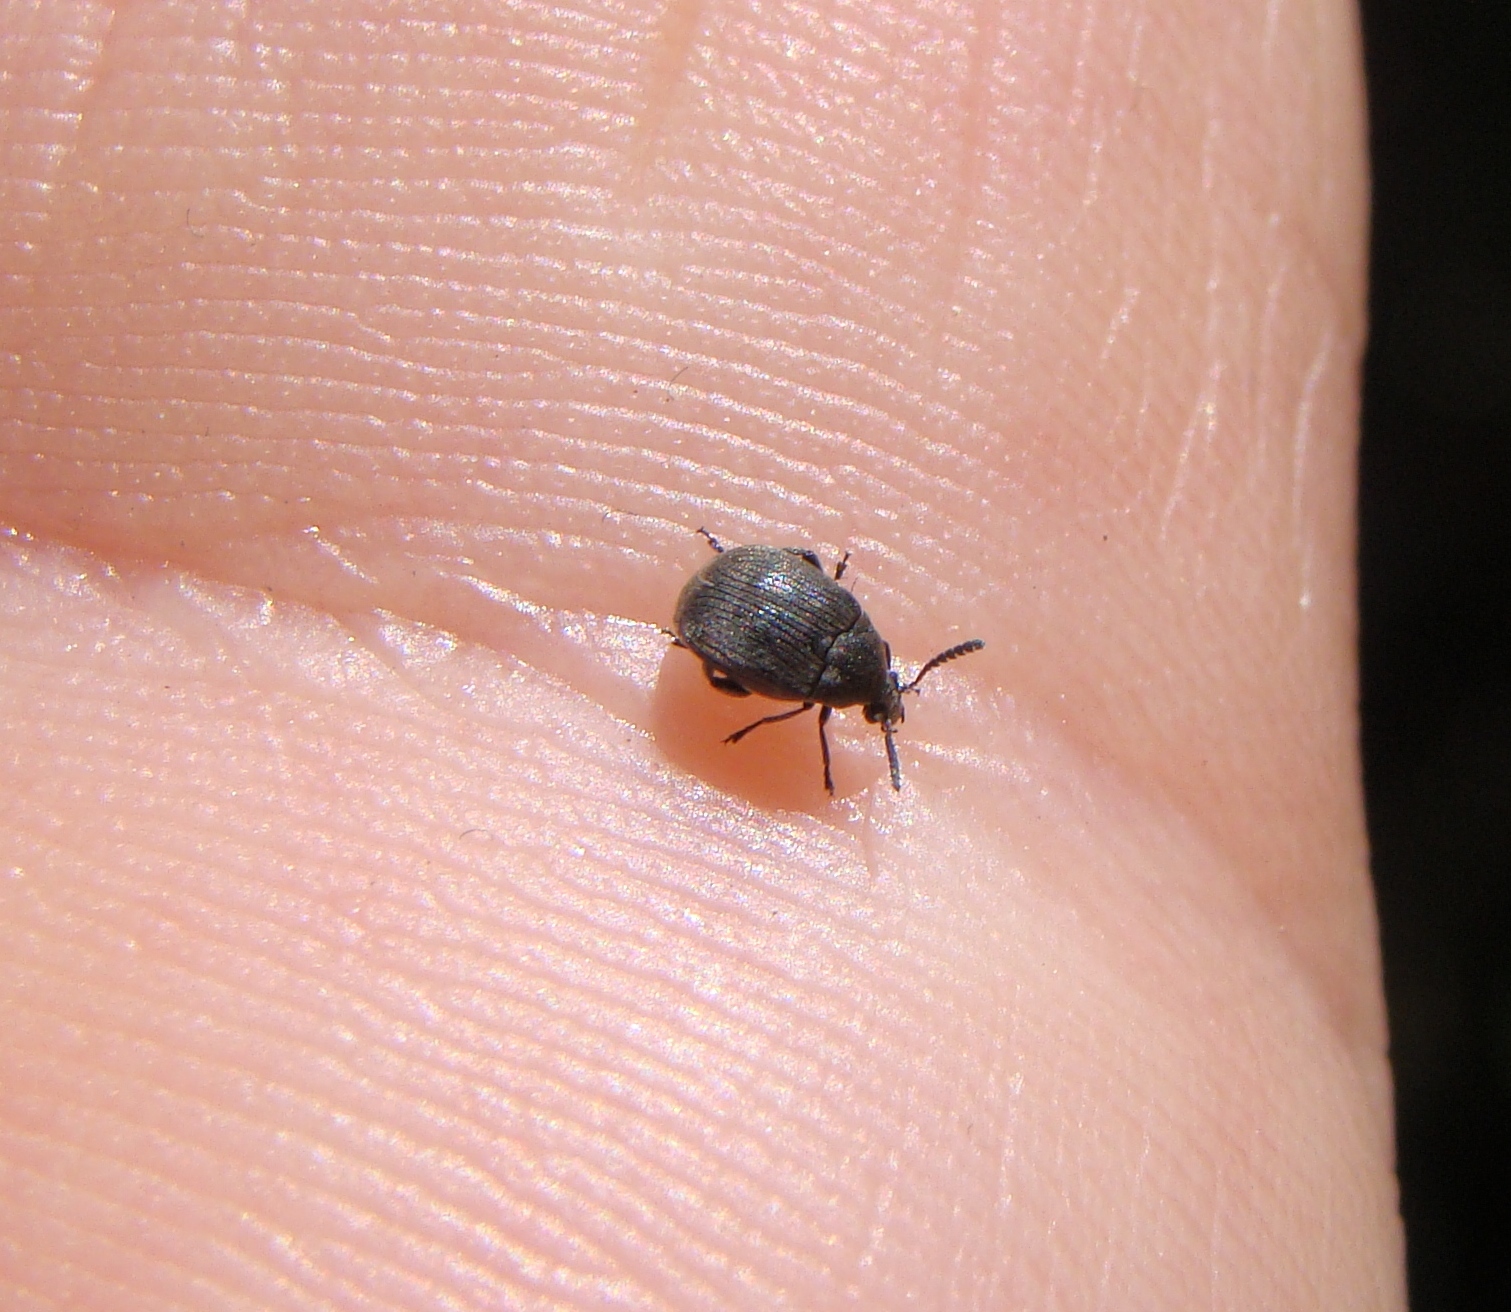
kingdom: Animalia
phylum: Arthropoda
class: Insecta
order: Coleoptera
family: Chrysomelidae
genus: Bruchidius
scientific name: Bruchidius villosus
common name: Scotch broom bruchid
